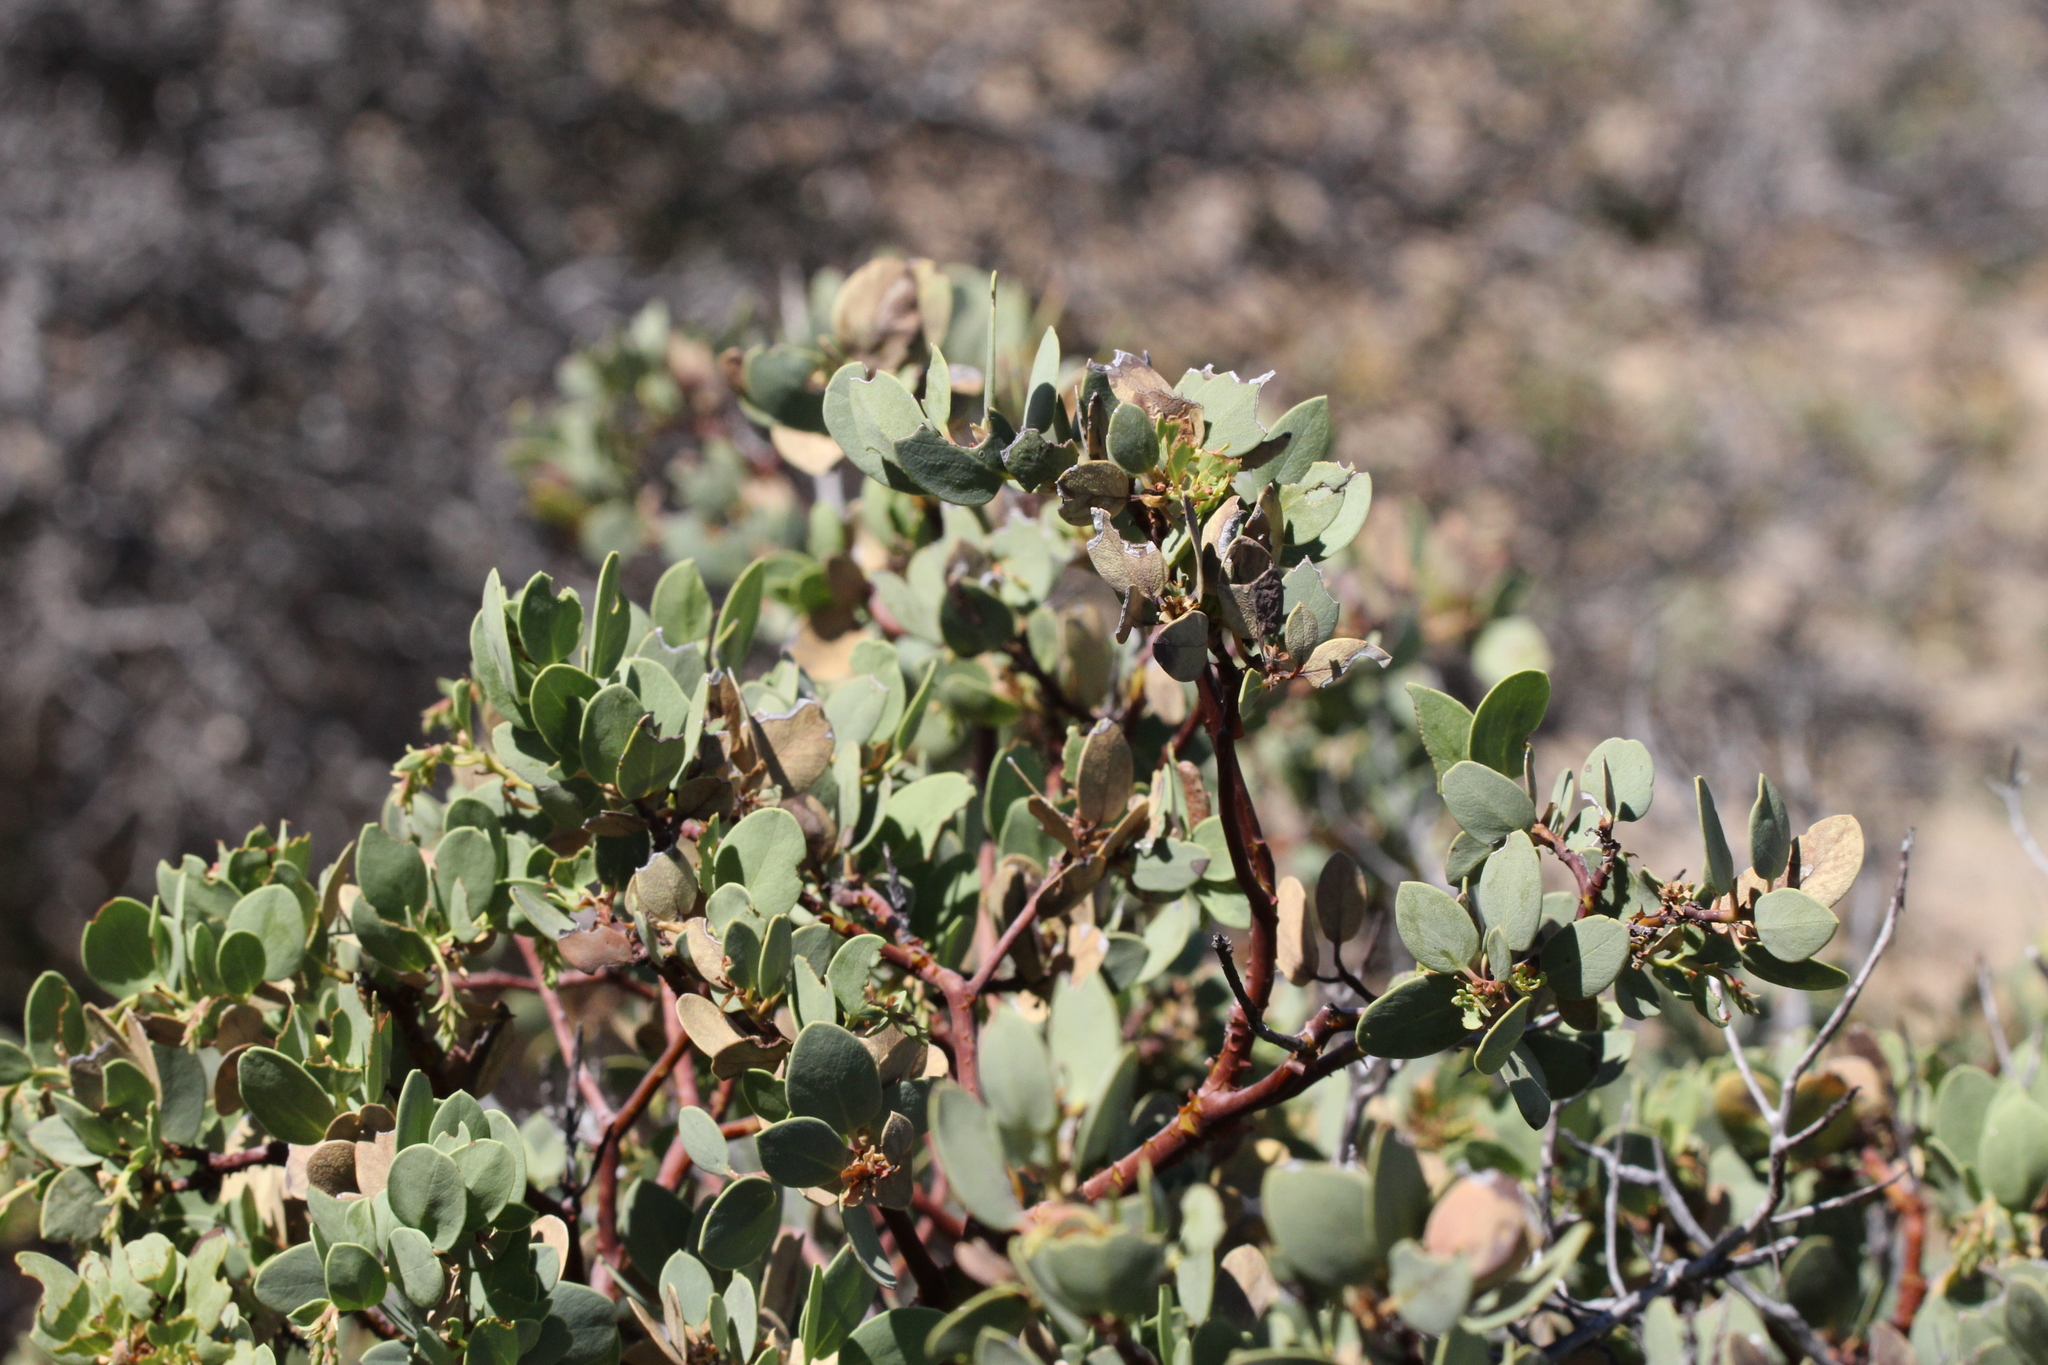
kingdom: Plantae
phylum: Tracheophyta
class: Magnoliopsida
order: Ericales
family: Ericaceae
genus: Arctostaphylos
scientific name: Arctostaphylos glauca
